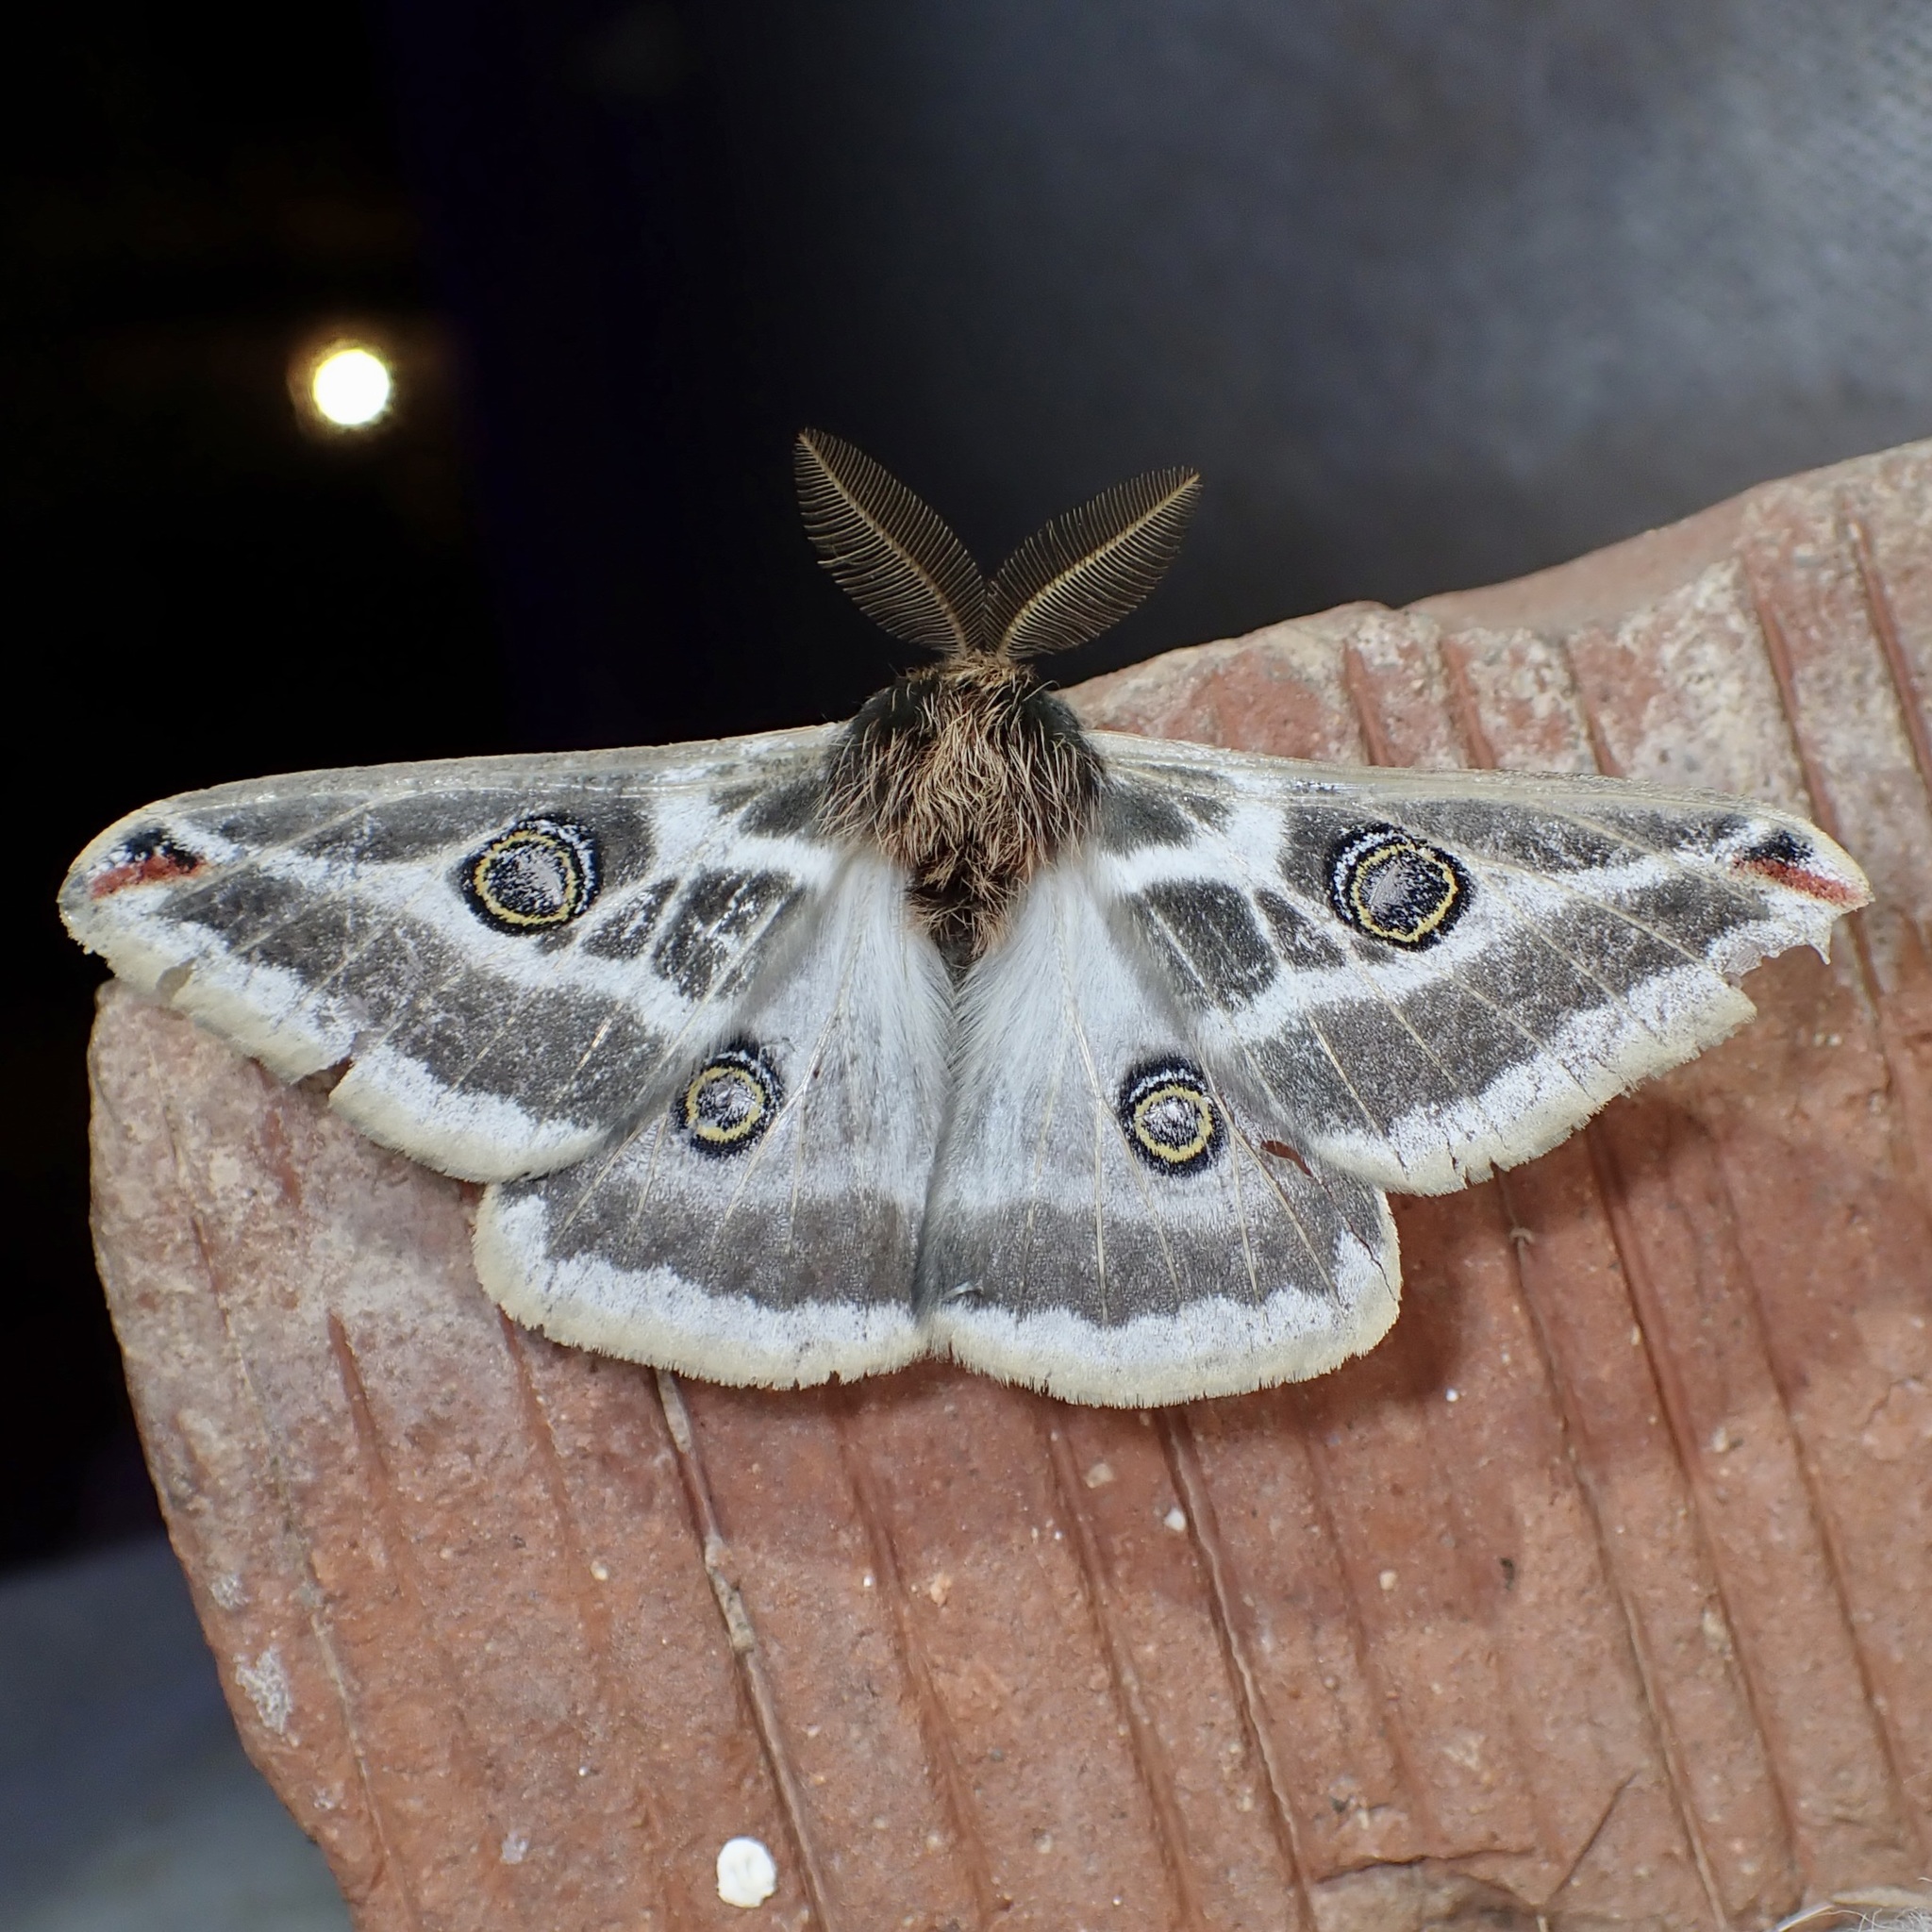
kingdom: Animalia
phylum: Arthropoda
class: Insecta
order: Lepidoptera
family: Saturniidae
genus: Saturnia
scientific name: Saturnia anona
